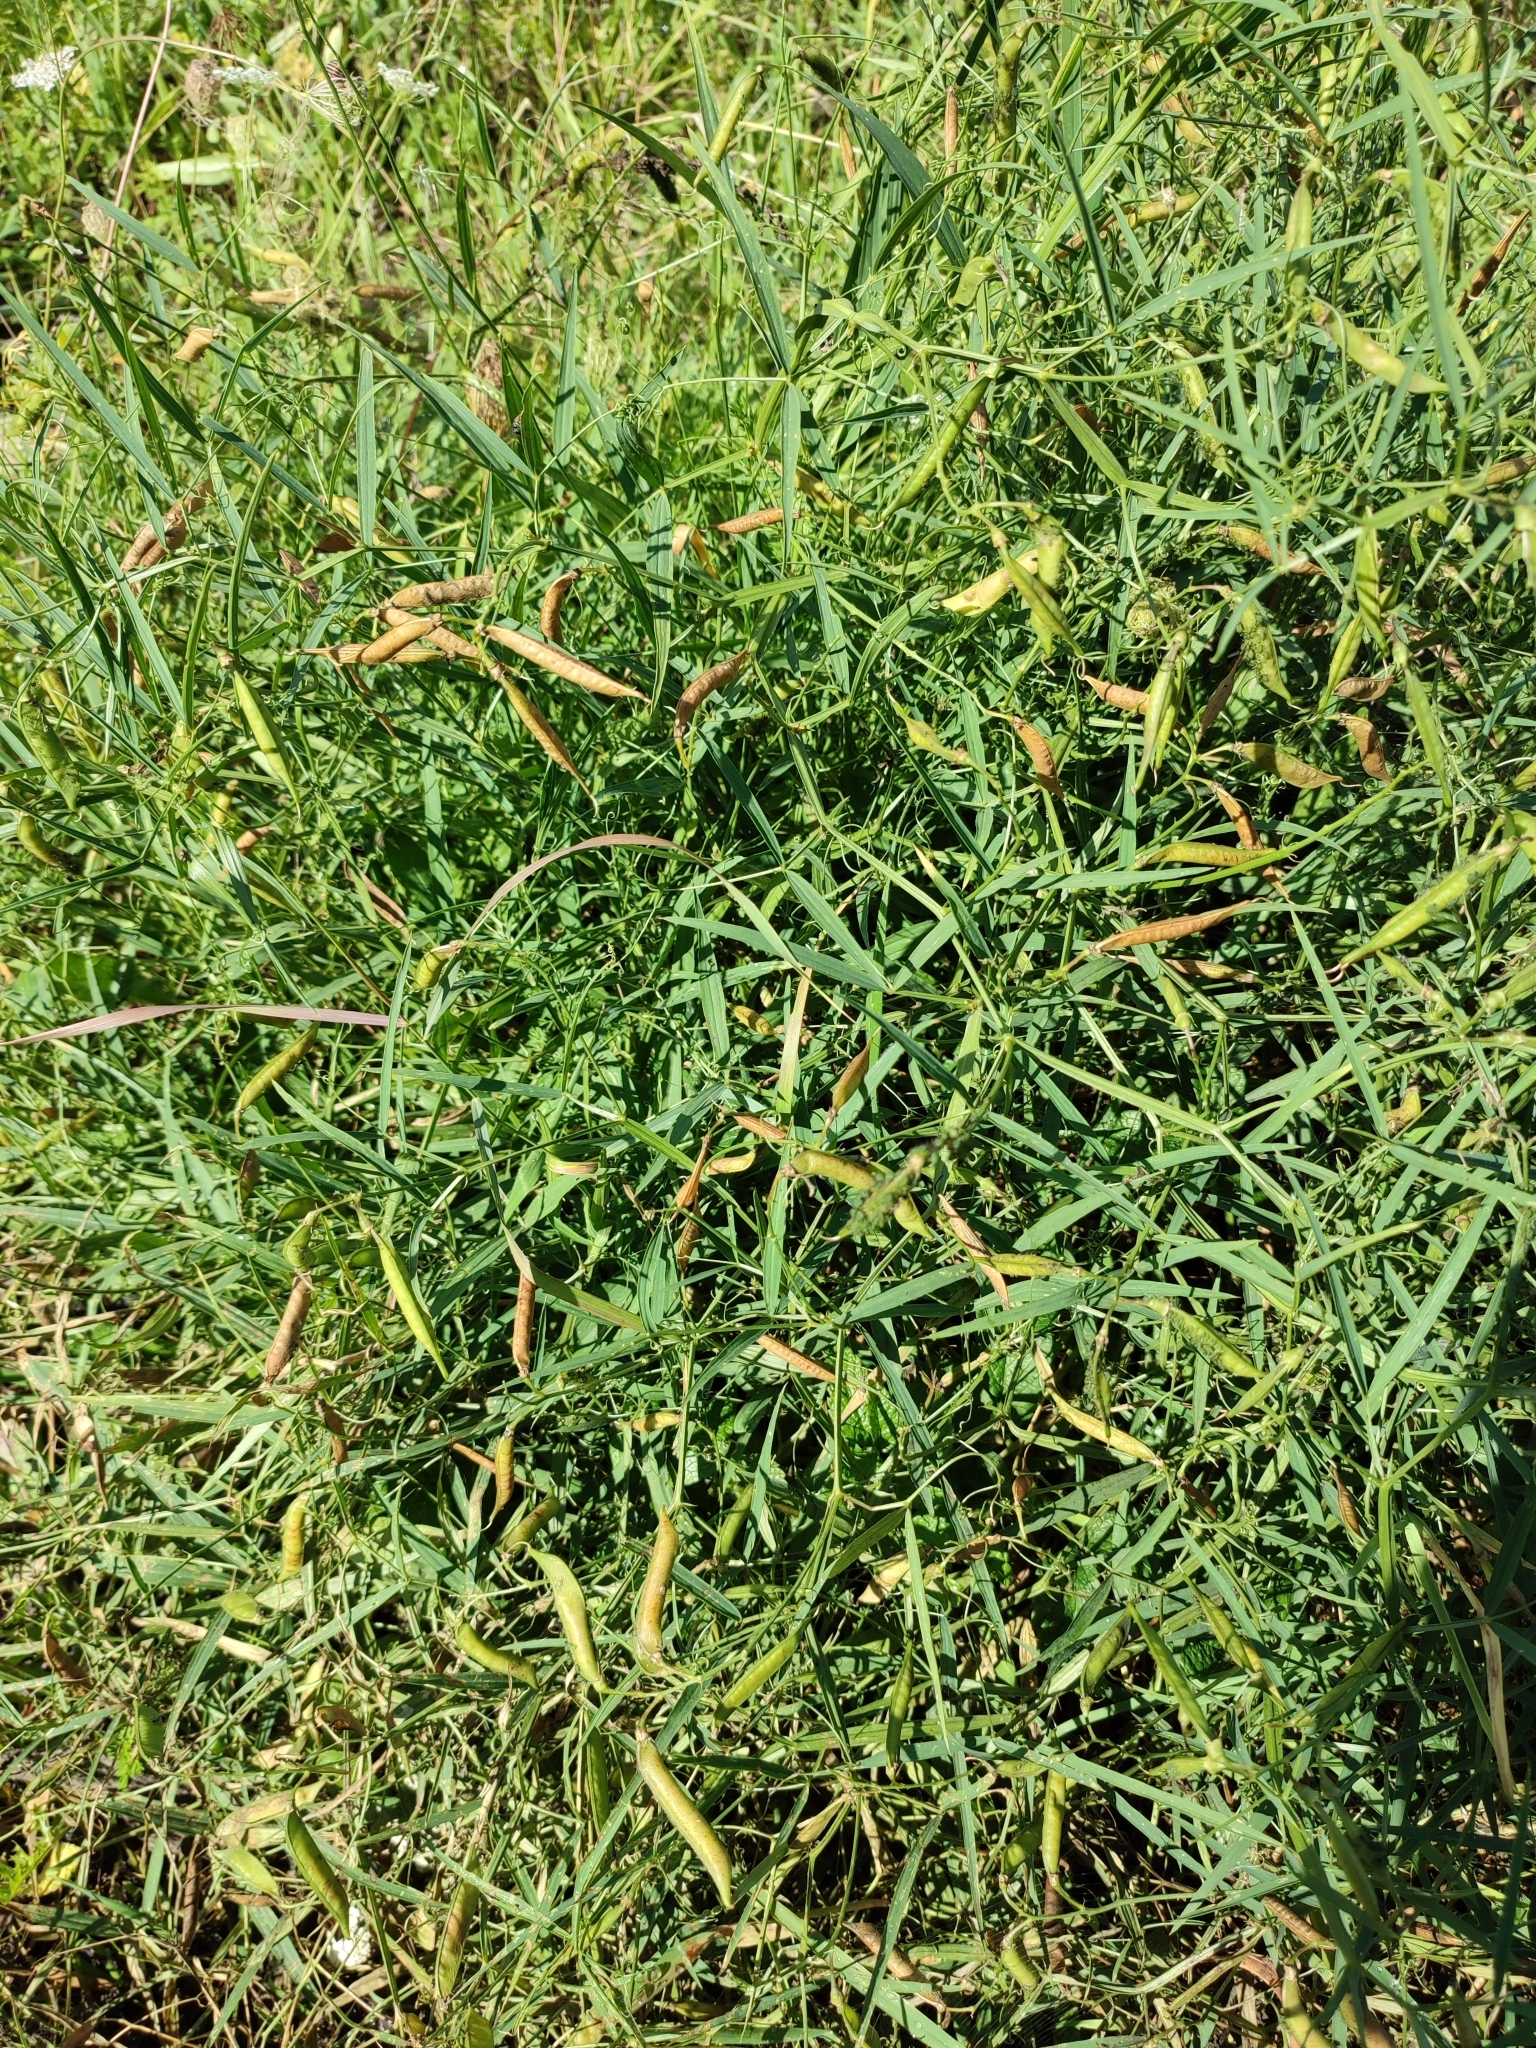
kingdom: Plantae
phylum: Tracheophyta
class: Magnoliopsida
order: Fabales
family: Fabaceae
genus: Lathyrus
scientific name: Lathyrus sylvestris
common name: Flat pea
